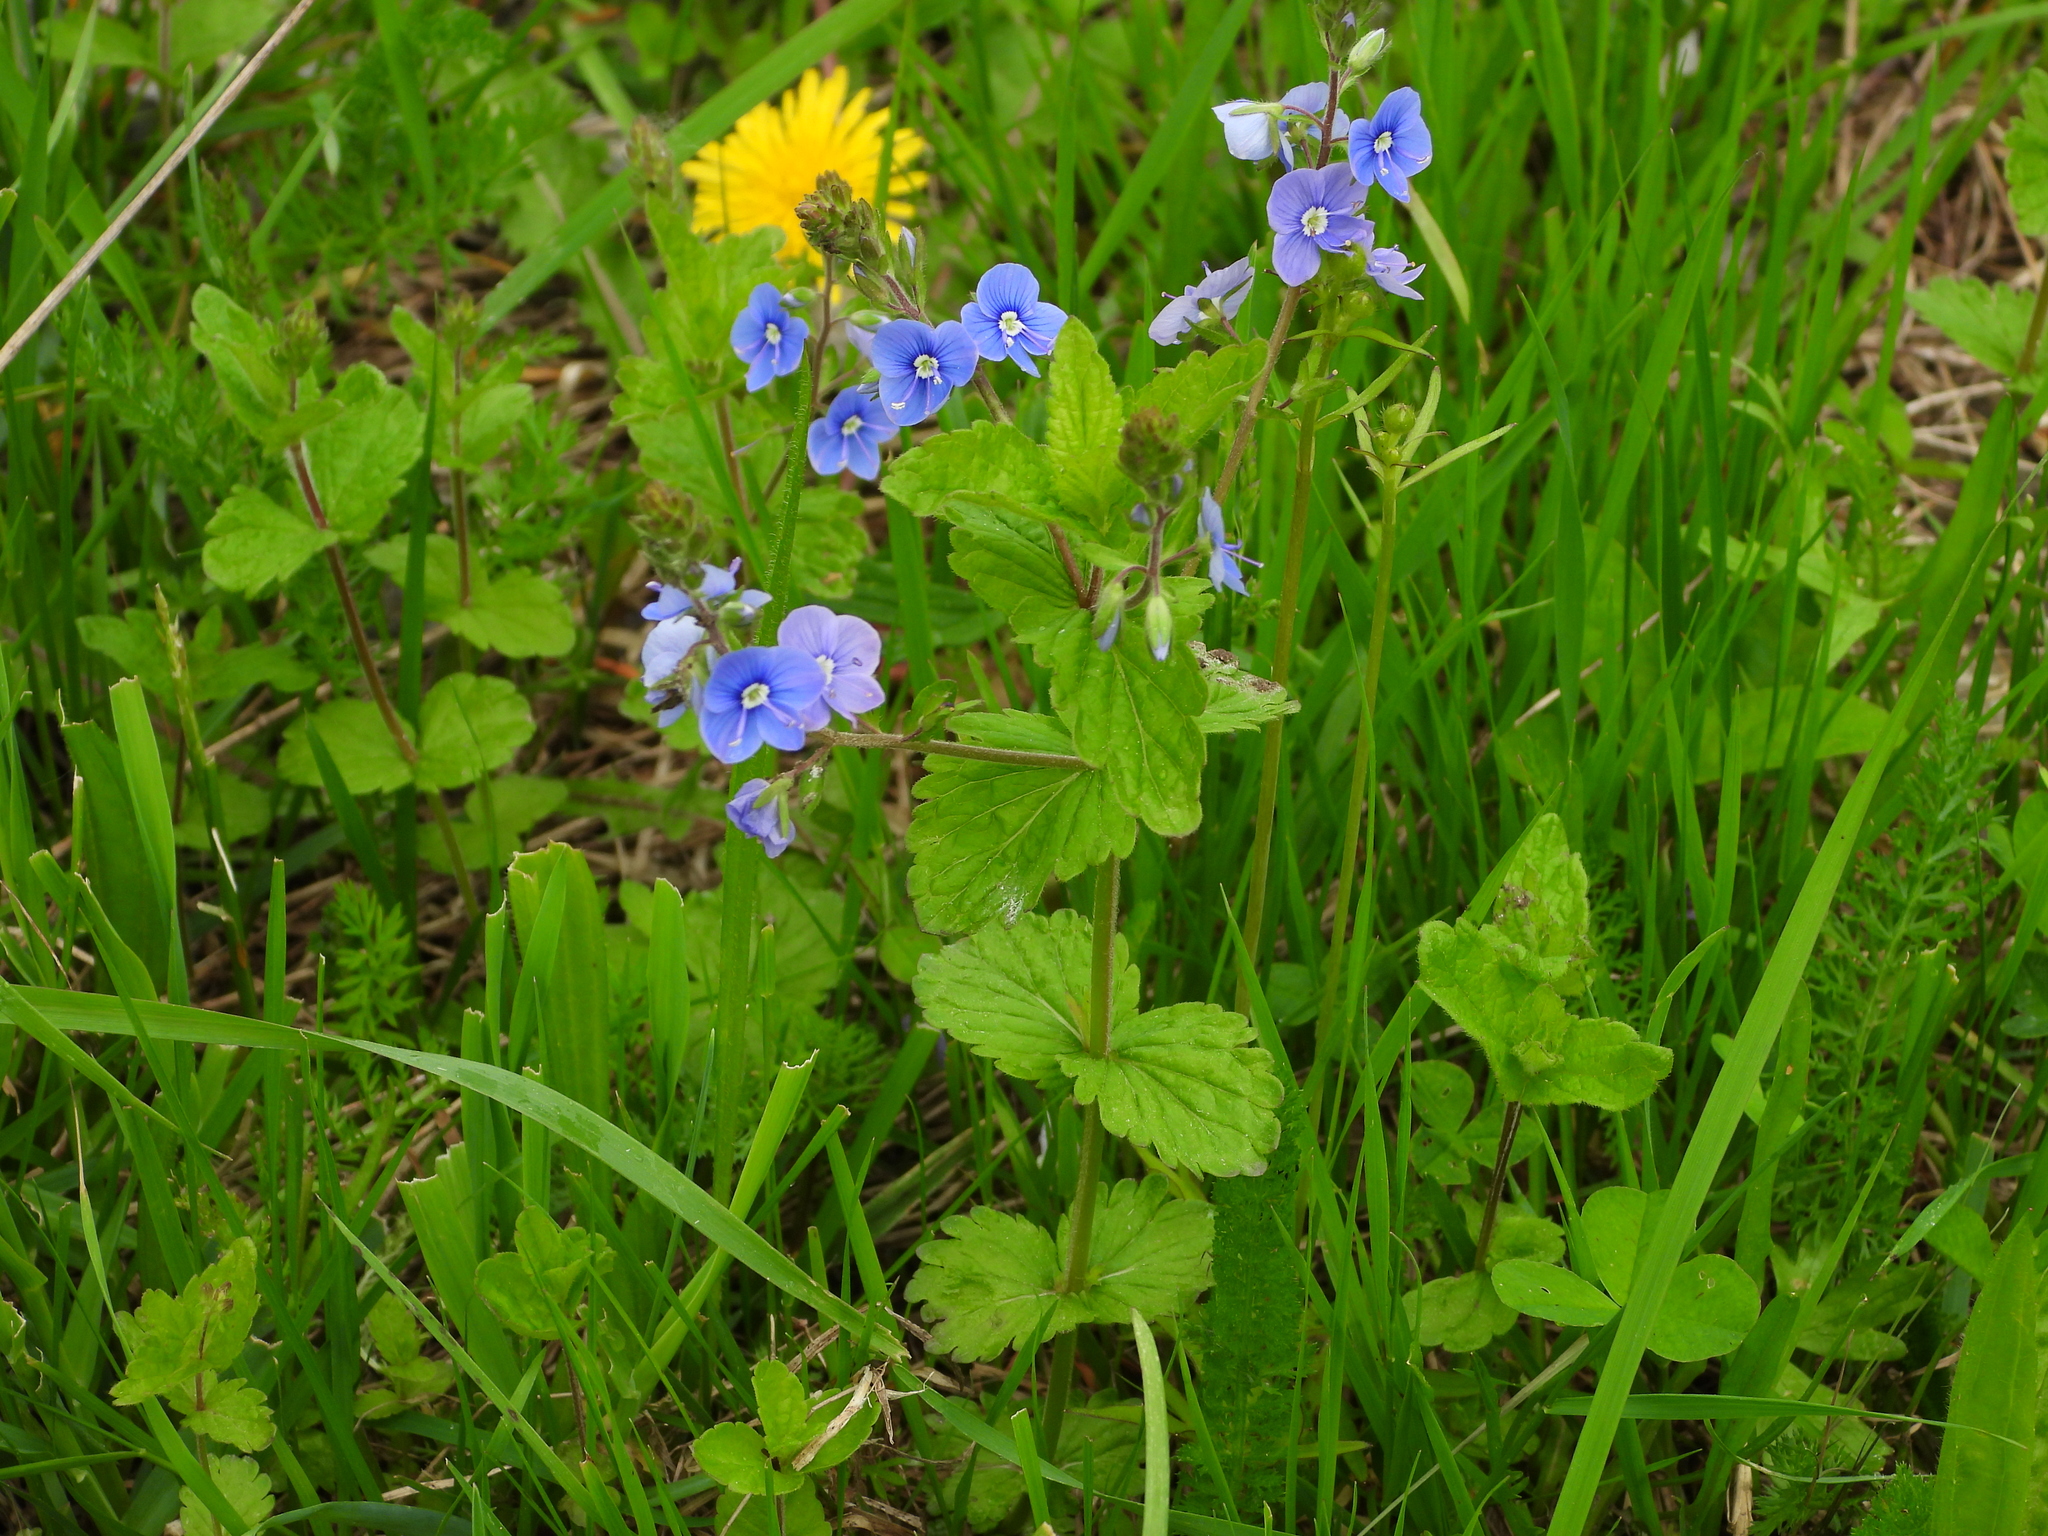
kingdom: Plantae
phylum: Tracheophyta
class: Magnoliopsida
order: Lamiales
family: Plantaginaceae
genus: Veronica
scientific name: Veronica chamaedrys
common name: Germander speedwell
